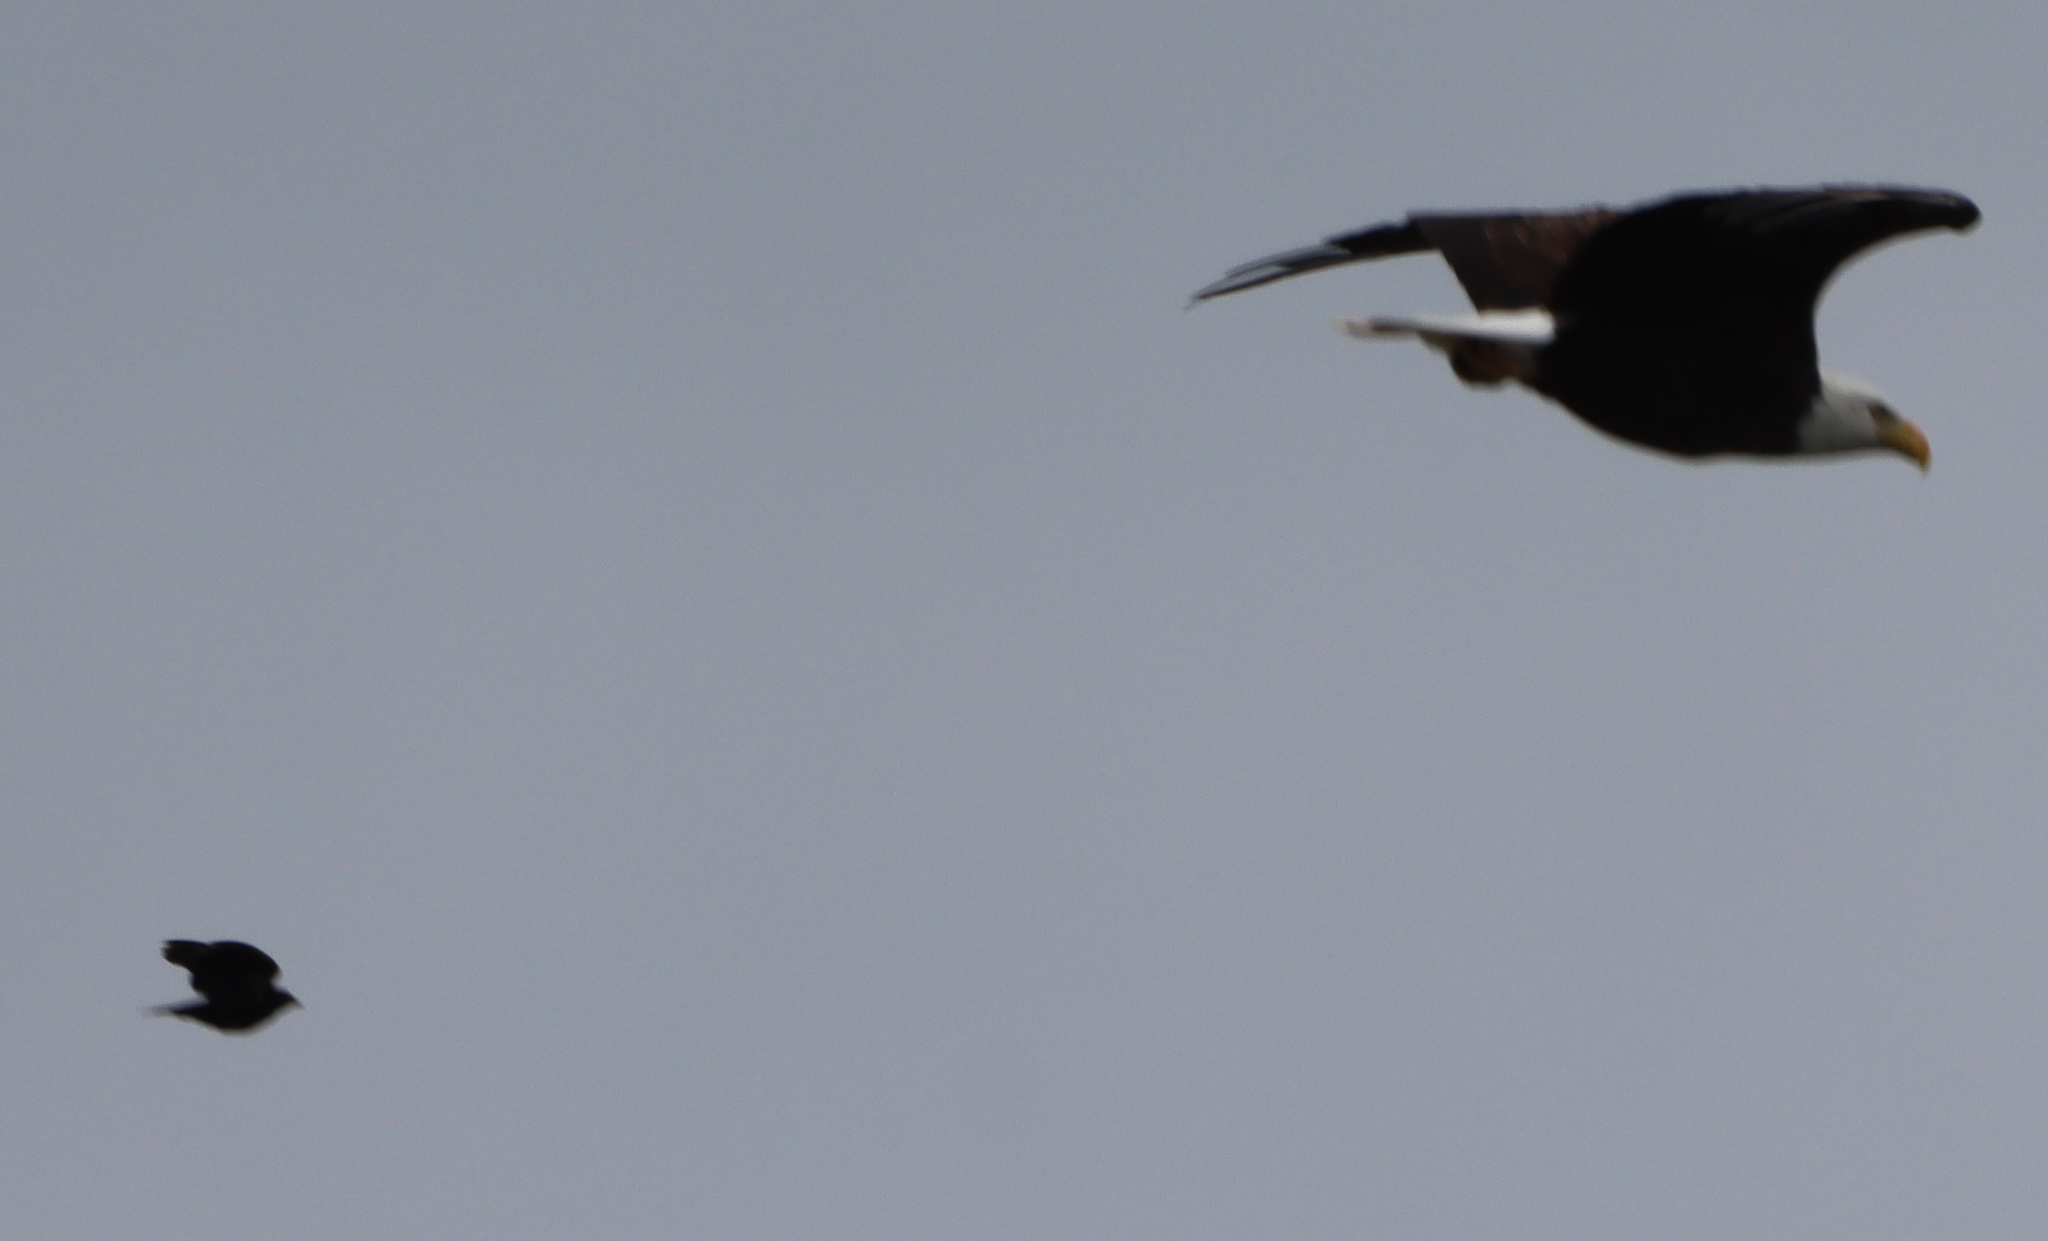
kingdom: Animalia
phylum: Chordata
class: Aves
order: Accipitriformes
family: Accipitridae
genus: Haliaeetus
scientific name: Haliaeetus leucocephalus
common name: Bald eagle
